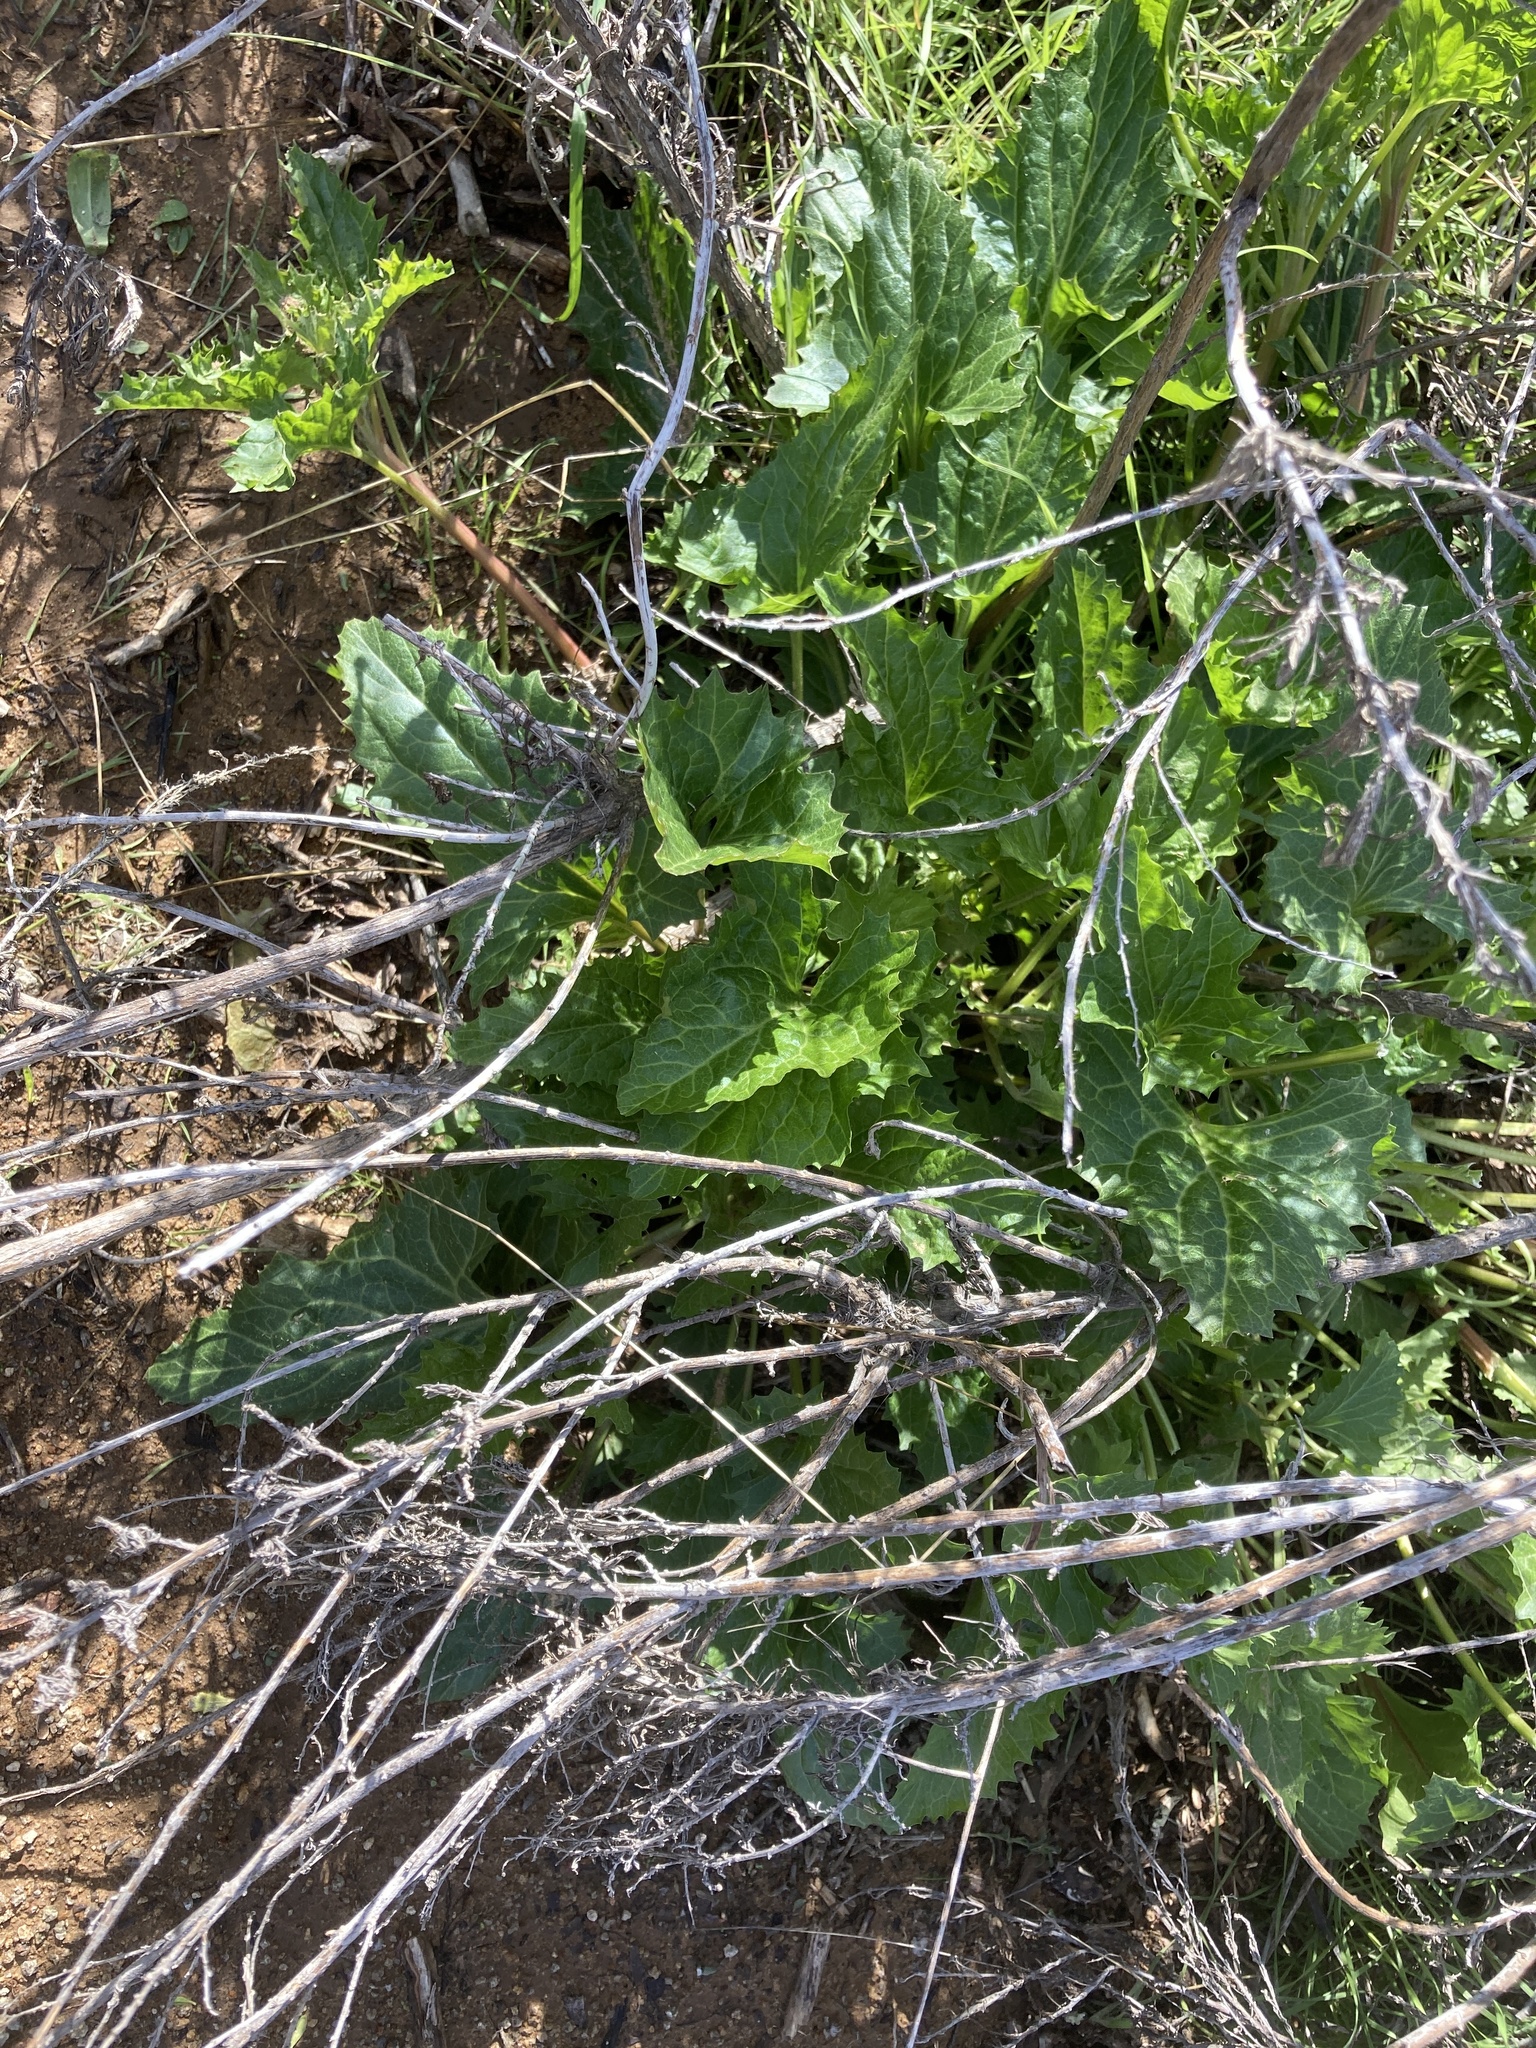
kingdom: Plantae
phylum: Tracheophyta
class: Magnoliopsida
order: Caryophyllales
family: Amaranthaceae
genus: Blitum
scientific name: Blitum californicum
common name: California goosefoot
